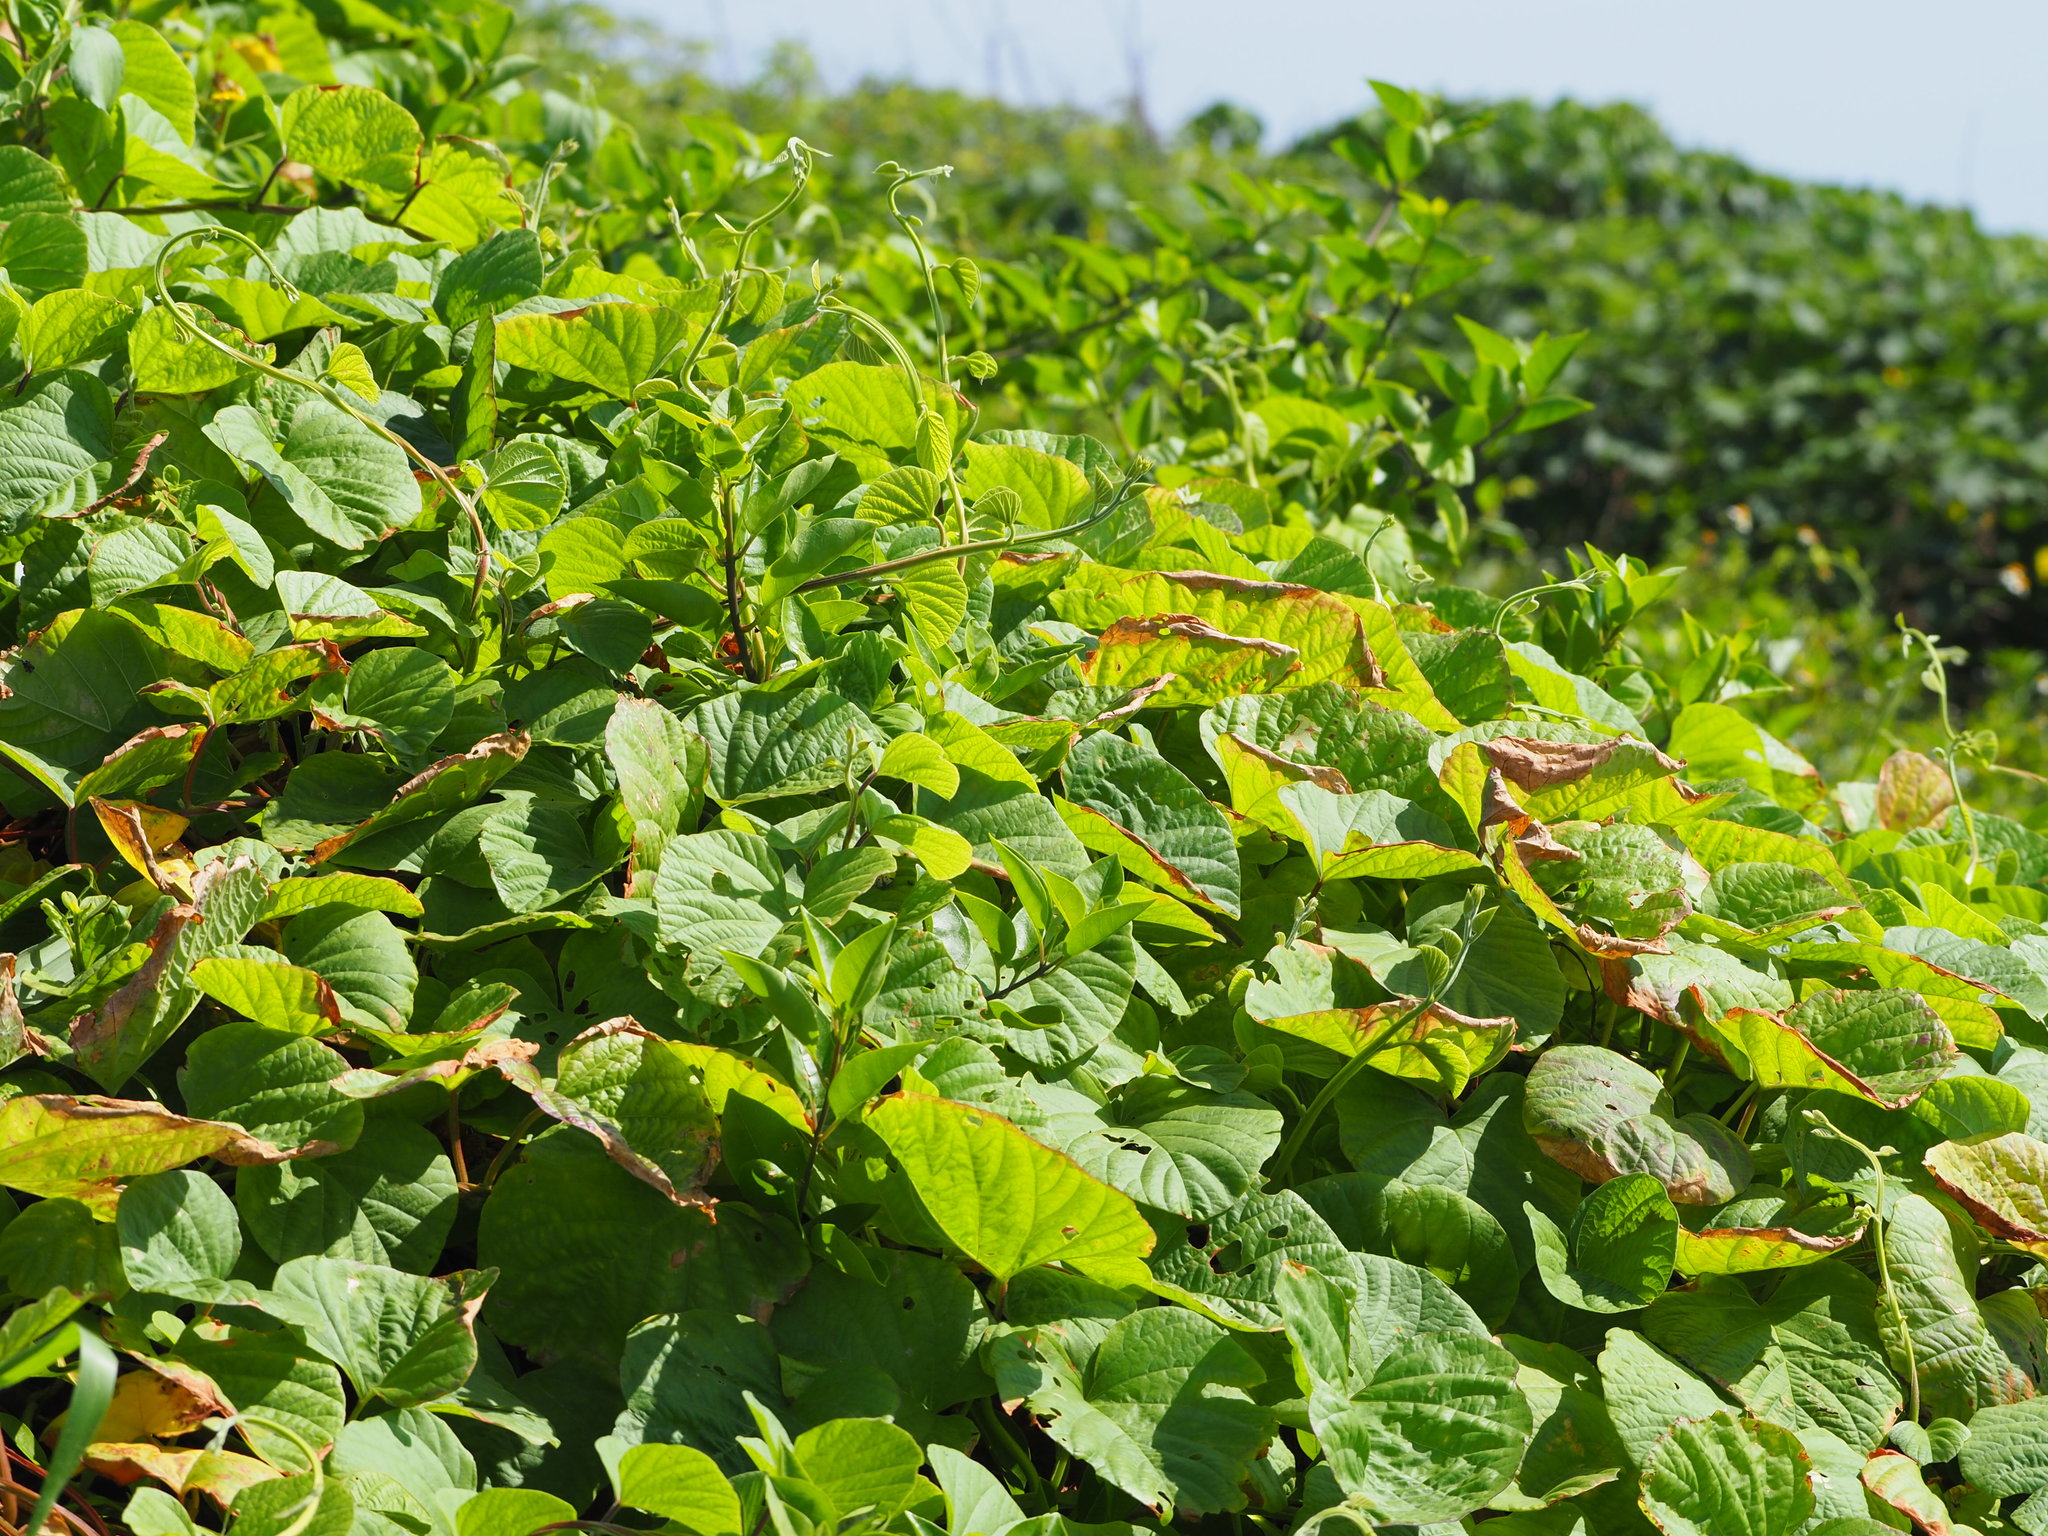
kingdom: Plantae
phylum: Tracheophyta
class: Magnoliopsida
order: Solanales
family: Convolvulaceae
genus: Operculina
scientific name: Operculina turpethum
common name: Transparent wood-rose
